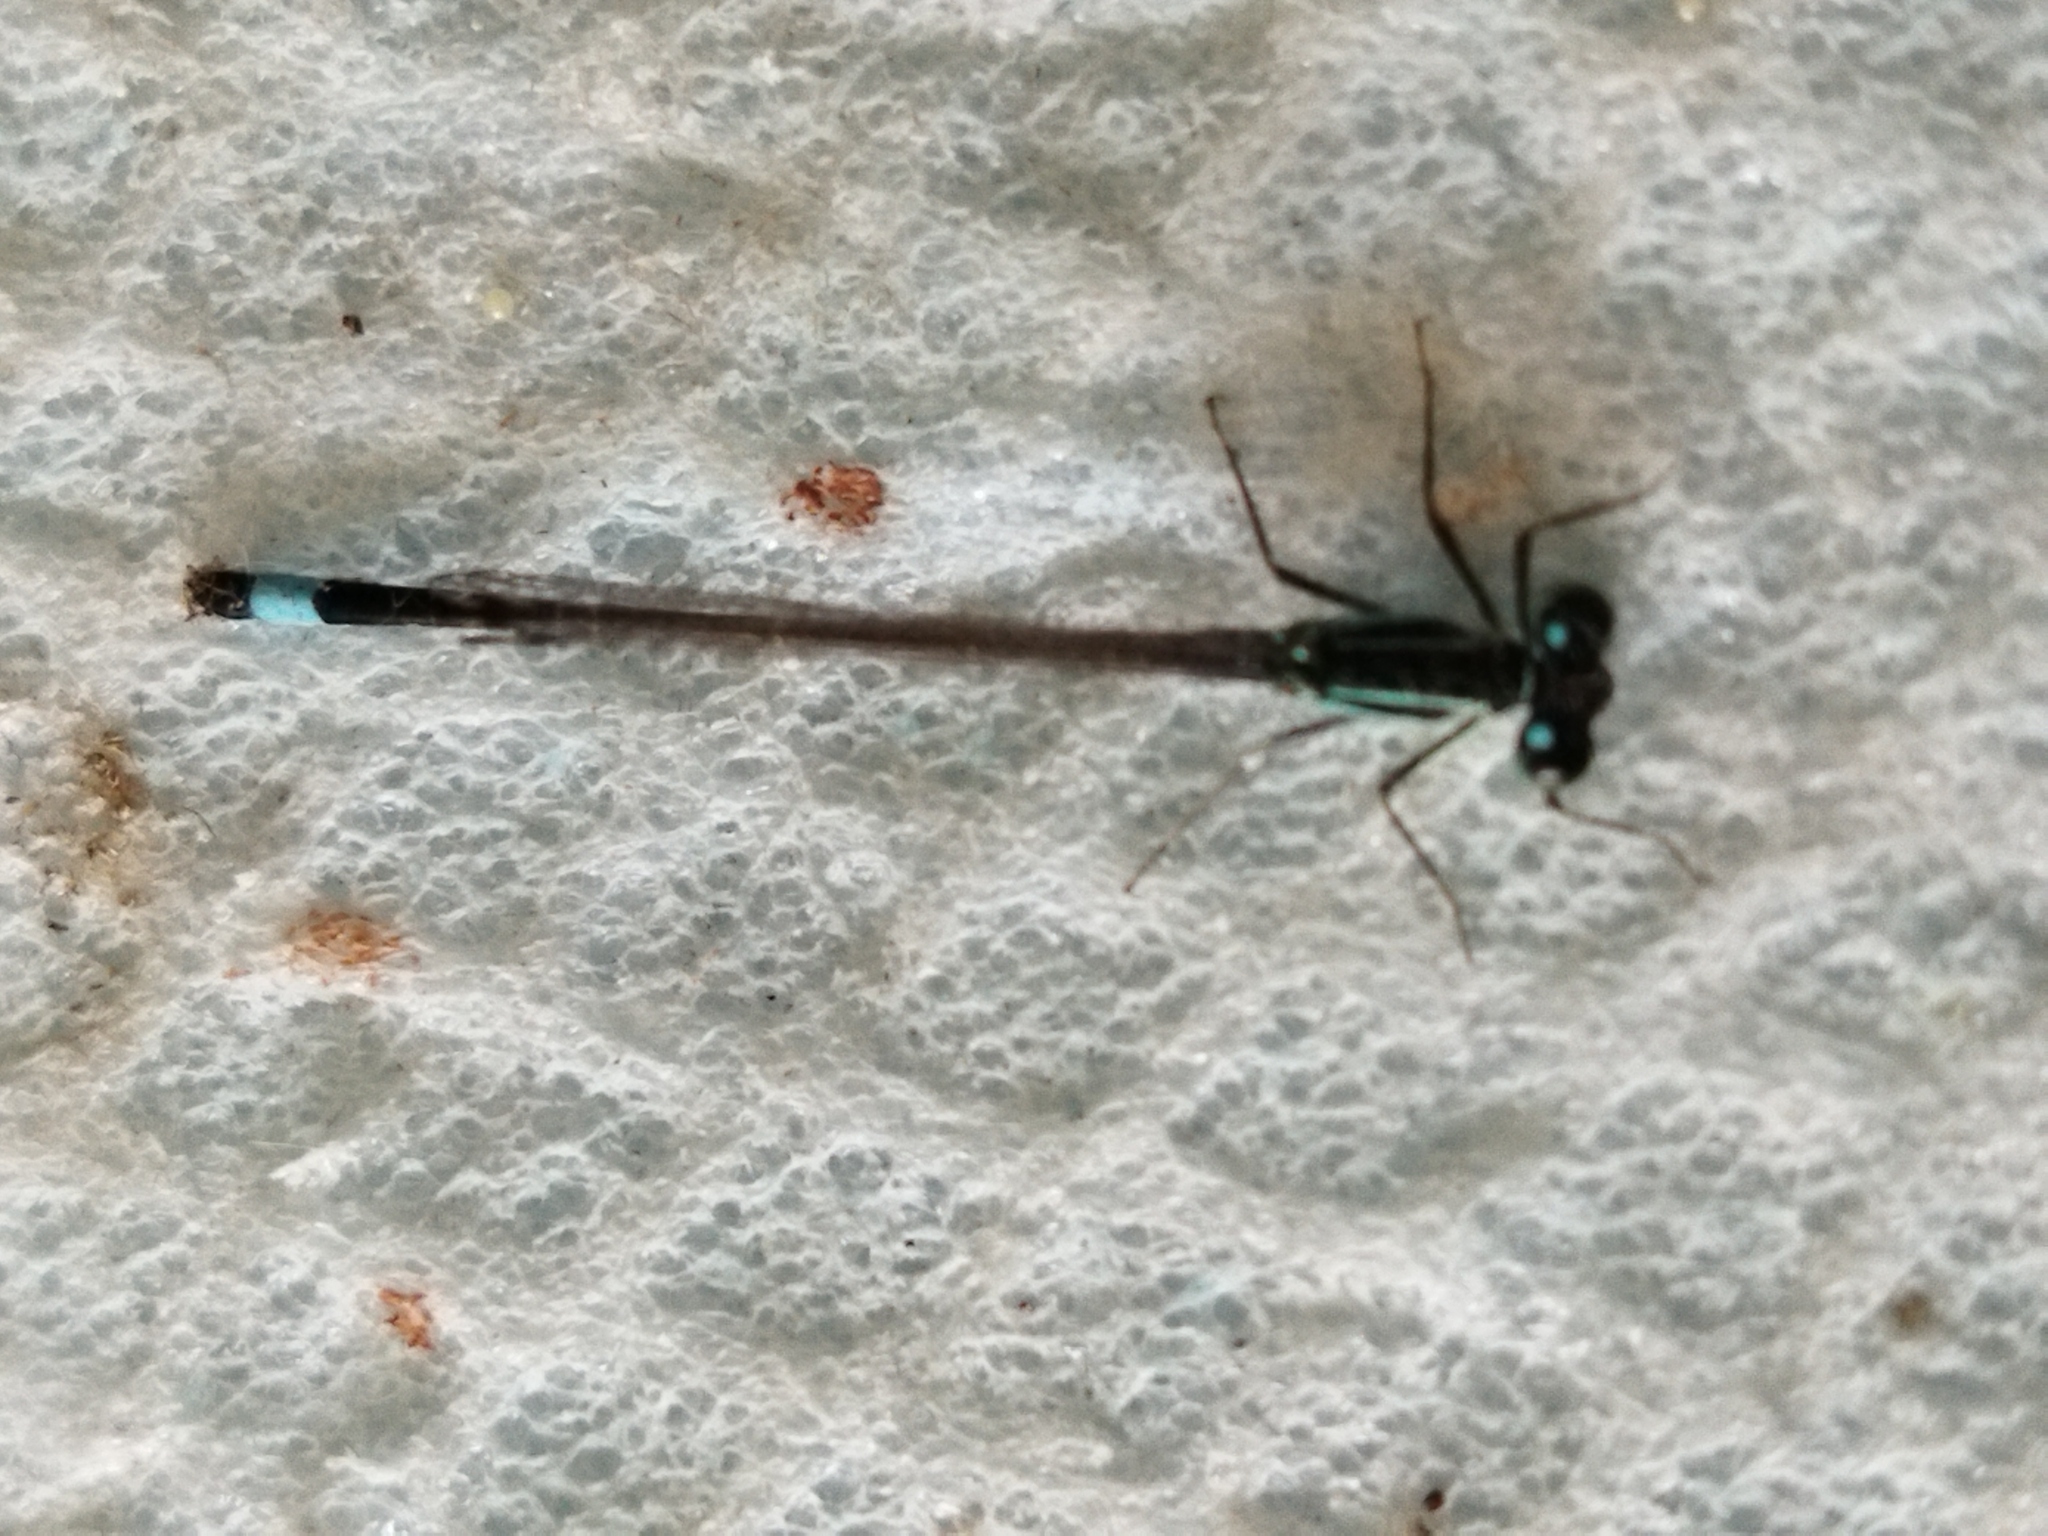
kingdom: Animalia
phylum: Arthropoda
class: Insecta
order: Odonata
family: Coenagrionidae
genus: Ischnura
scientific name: Ischnura elegans
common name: Blue-tailed damselfly
